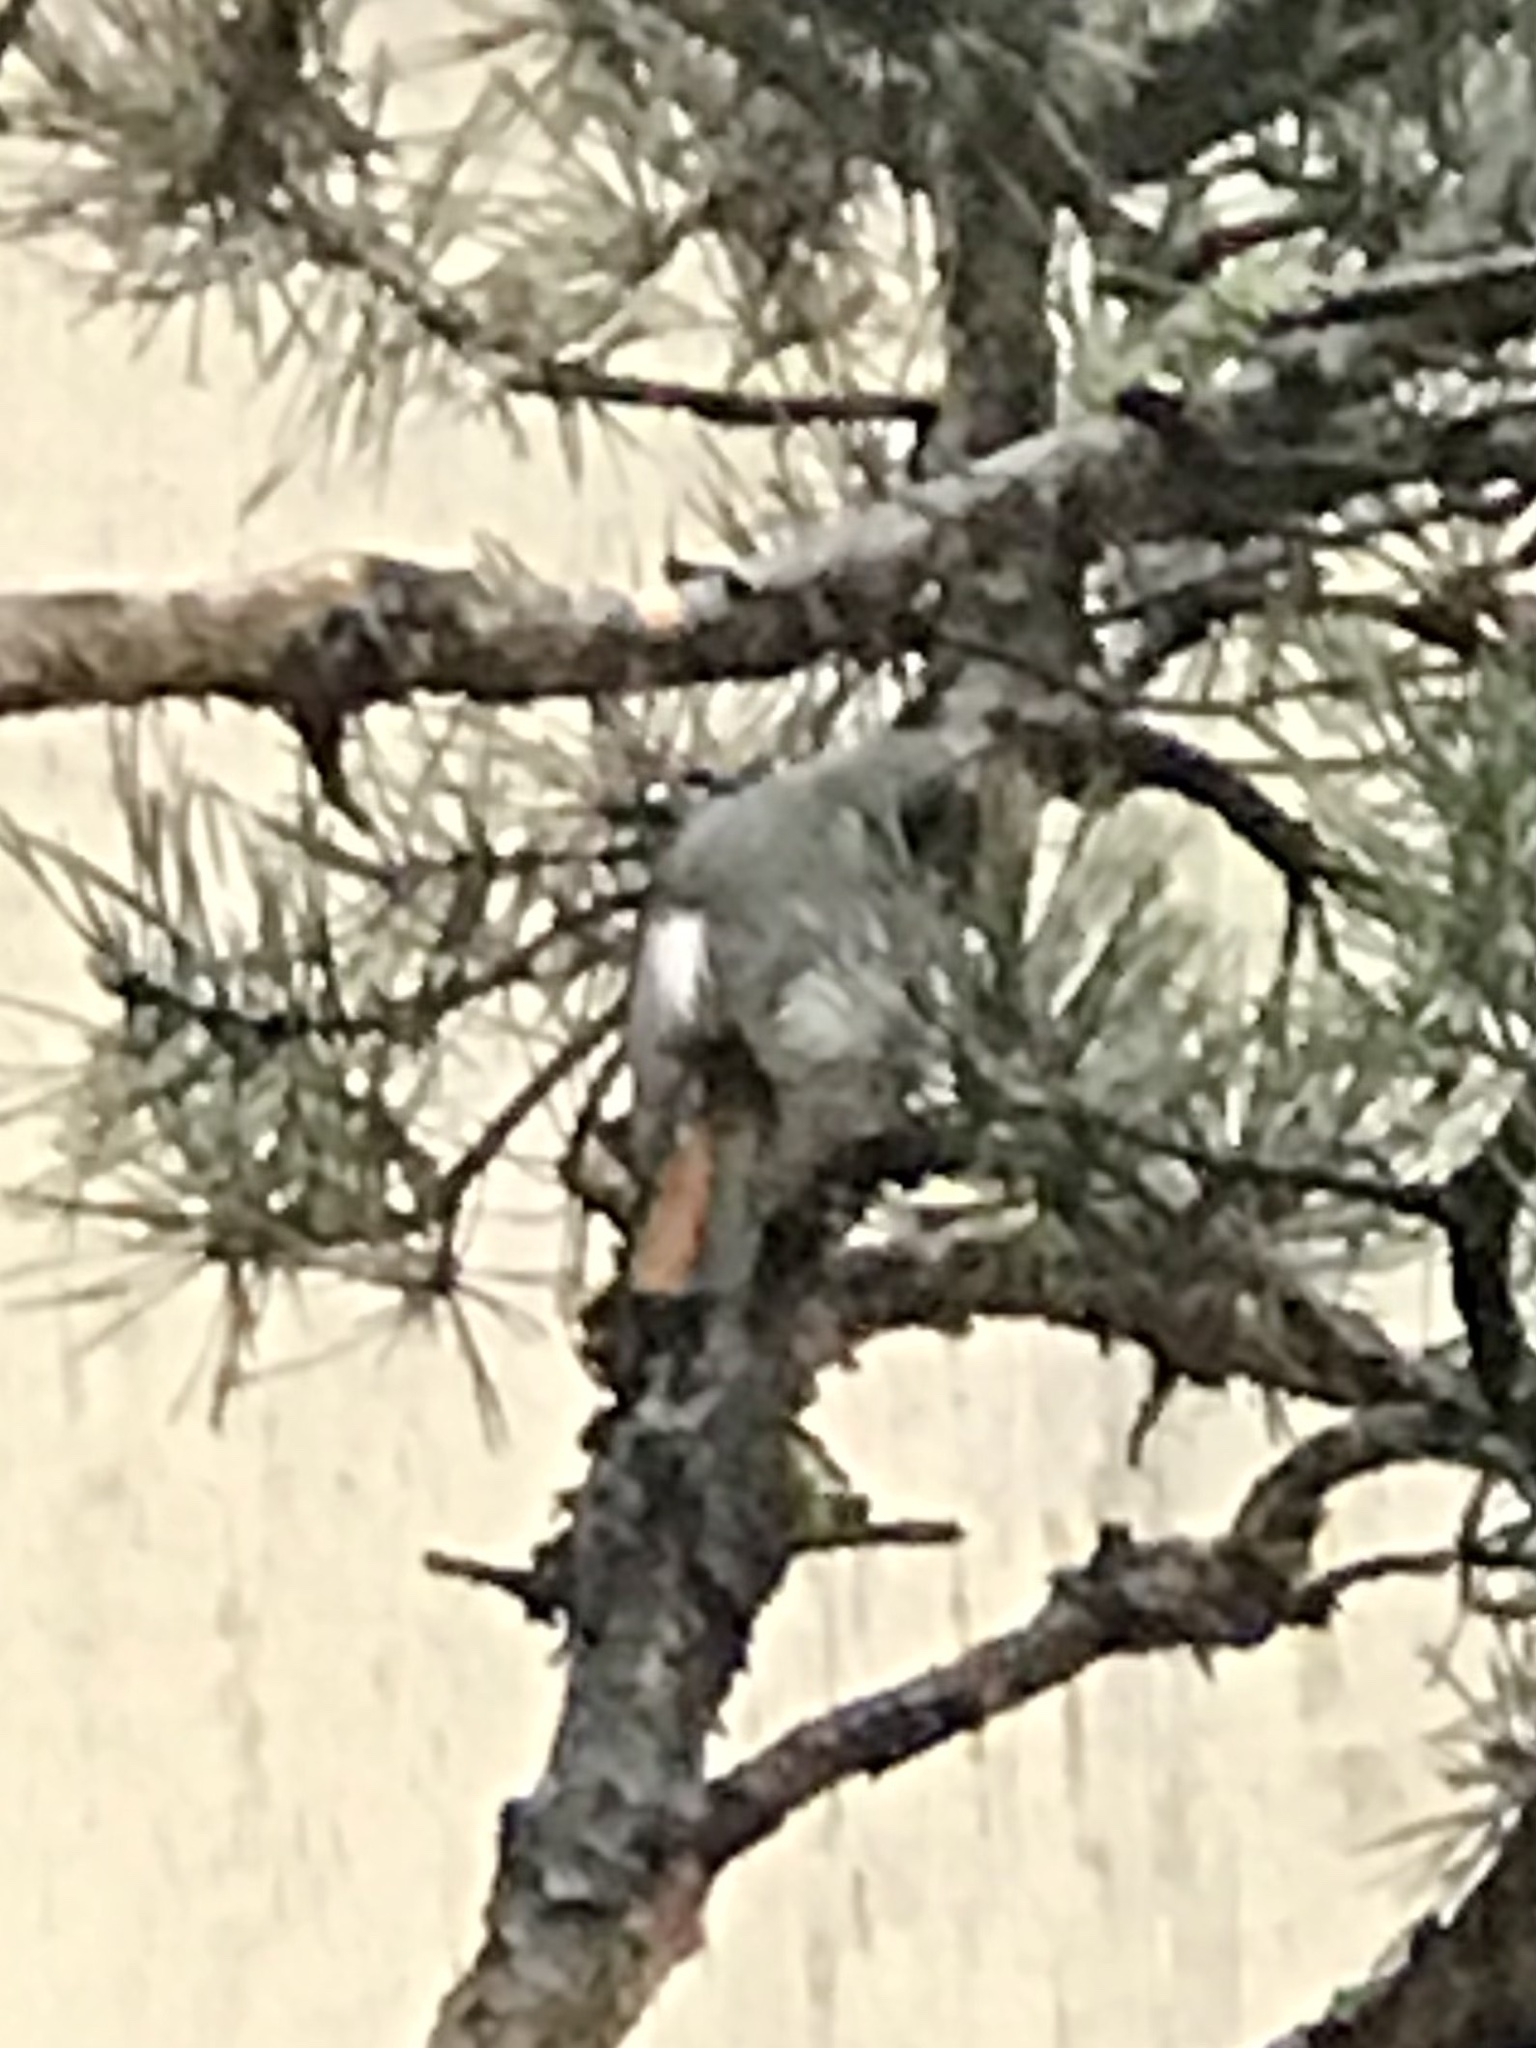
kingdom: Animalia
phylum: Chordata
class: Aves
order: Passeriformes
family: Muscicapidae
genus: Phoenicurus
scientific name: Phoenicurus ochruros
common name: Black redstart
